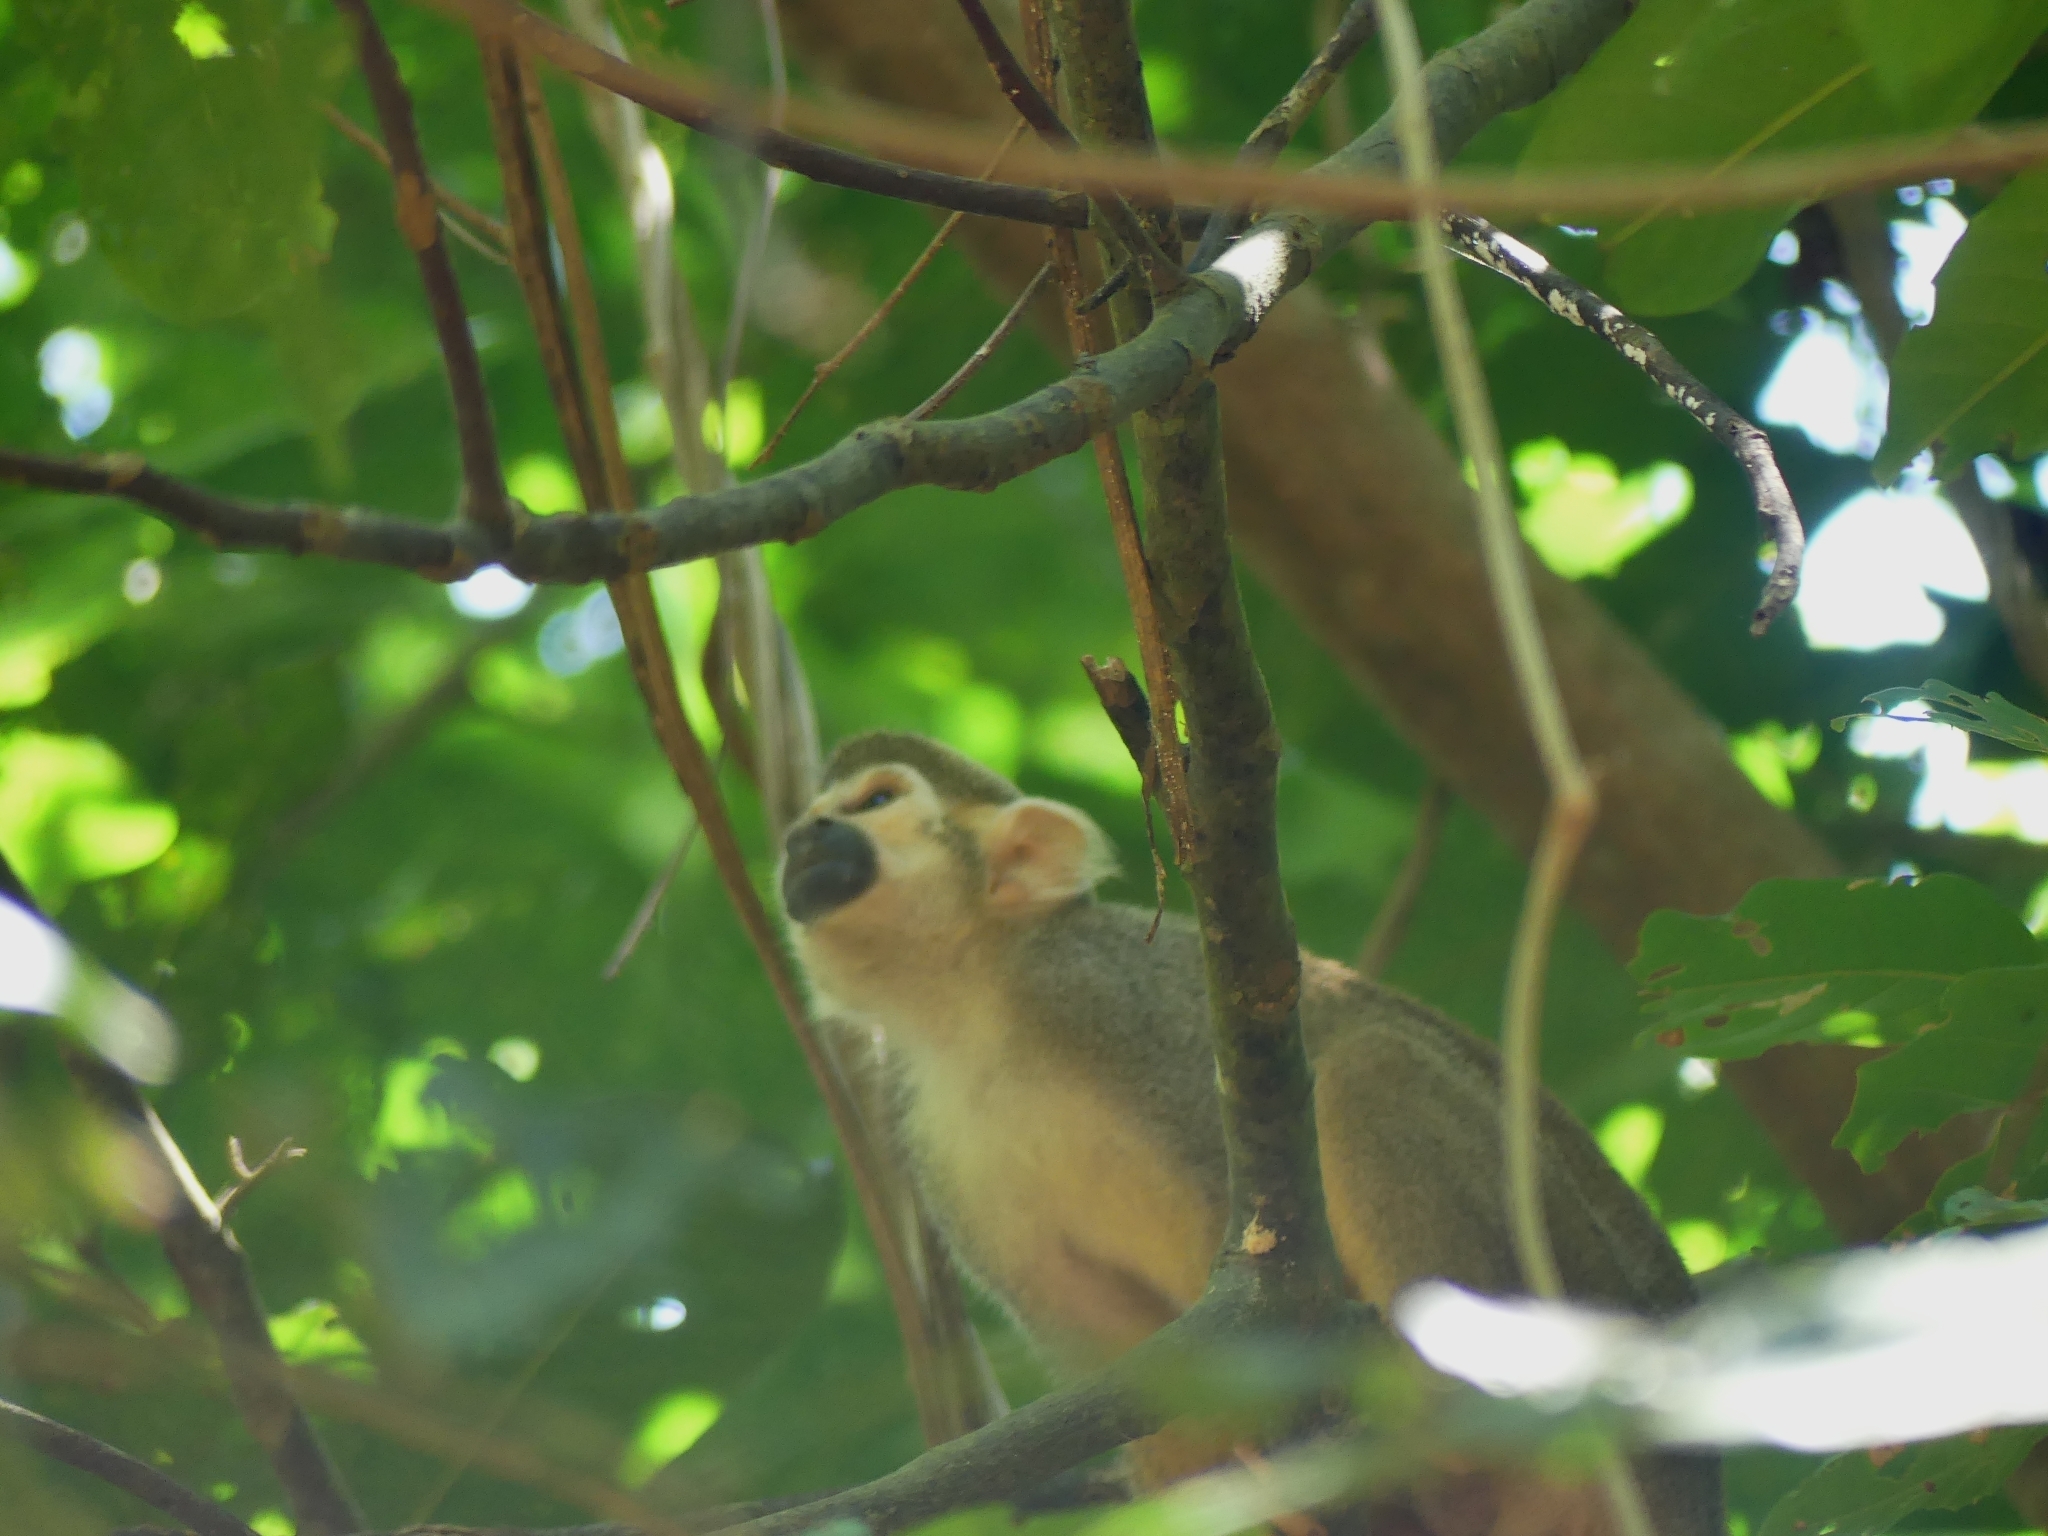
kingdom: Animalia
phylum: Chordata
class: Mammalia
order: Primates
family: Cebidae
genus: Saimiri
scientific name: Saimiri sciureus
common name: Common squirrel monkey
